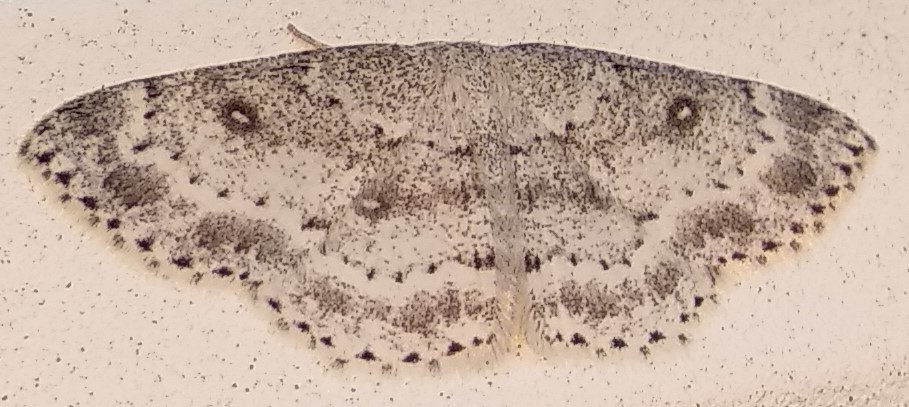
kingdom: Animalia
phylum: Arthropoda
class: Insecta
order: Lepidoptera
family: Geometridae
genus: Cyclophora
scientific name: Cyclophora pendulinaria
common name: Sweet fern geometer
